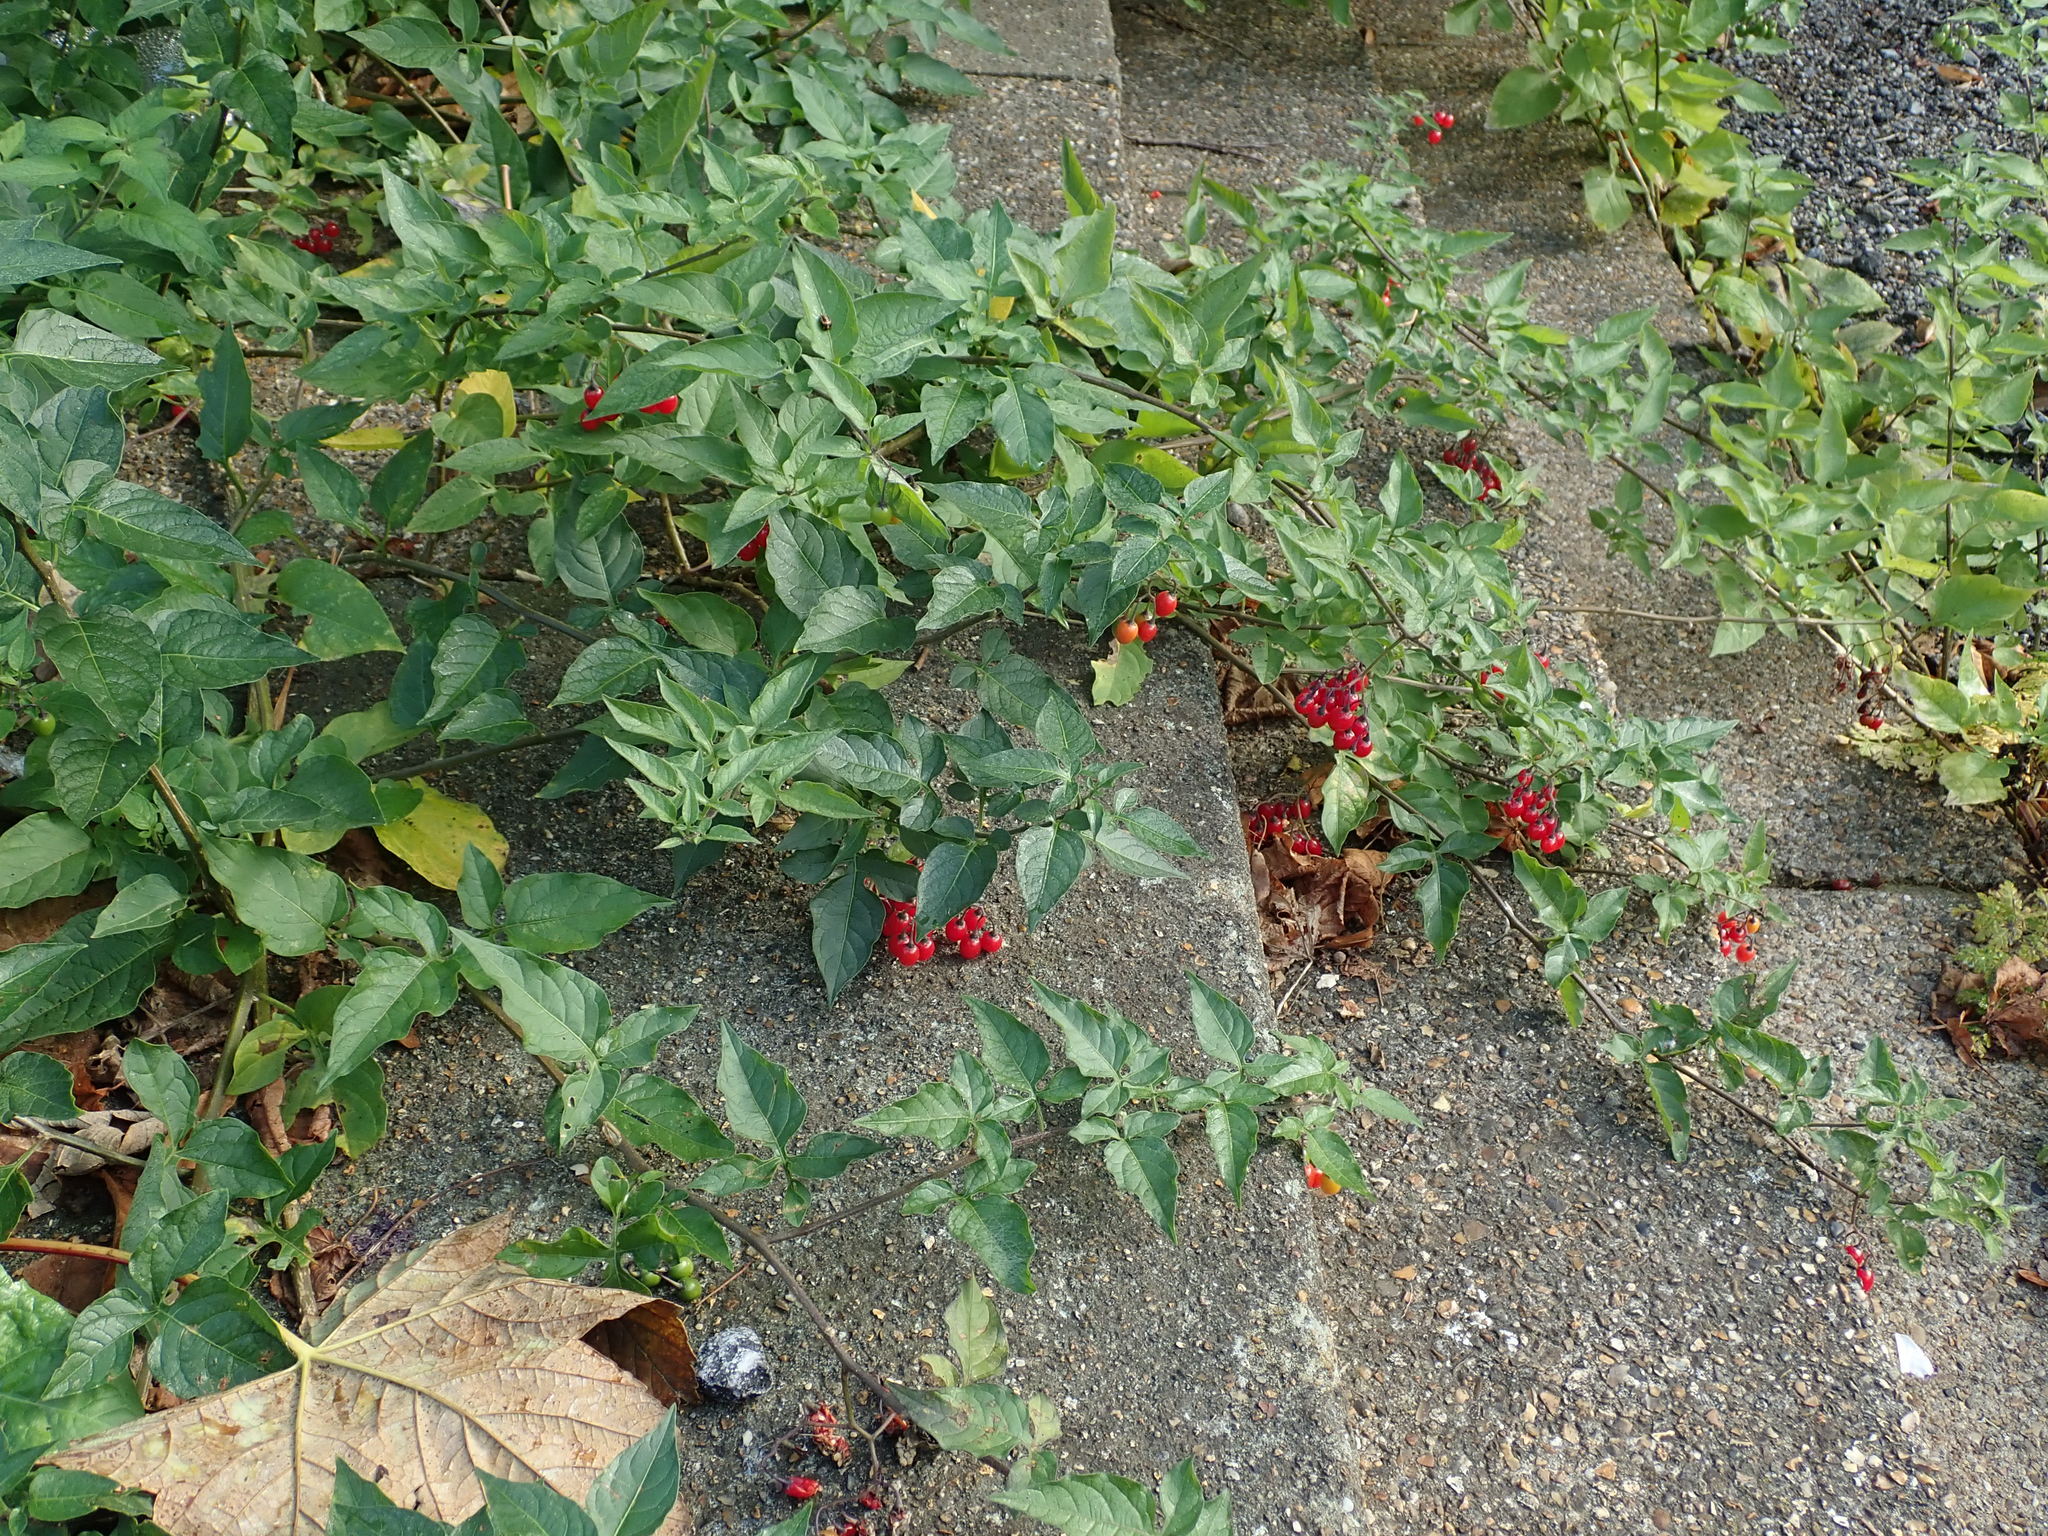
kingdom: Plantae
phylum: Tracheophyta
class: Magnoliopsida
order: Solanales
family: Solanaceae
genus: Solanum
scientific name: Solanum dulcamara
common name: Climbing nightshade
